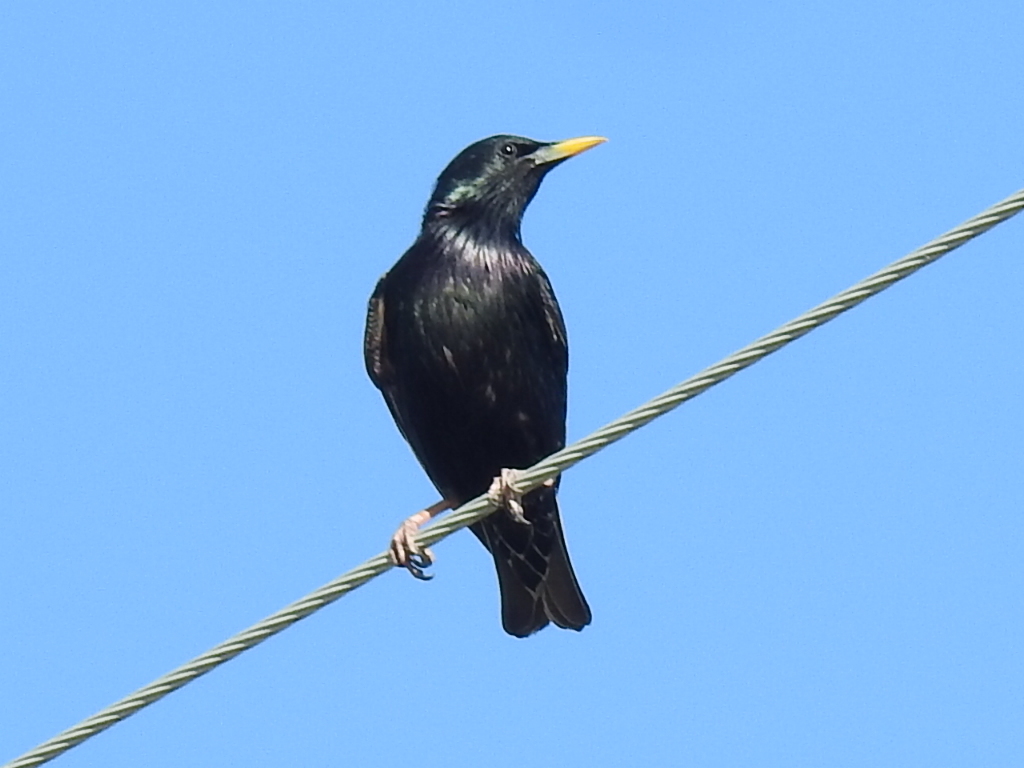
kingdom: Animalia
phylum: Chordata
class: Aves
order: Passeriformes
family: Sturnidae
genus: Sturnus
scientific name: Sturnus vulgaris
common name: Common starling
